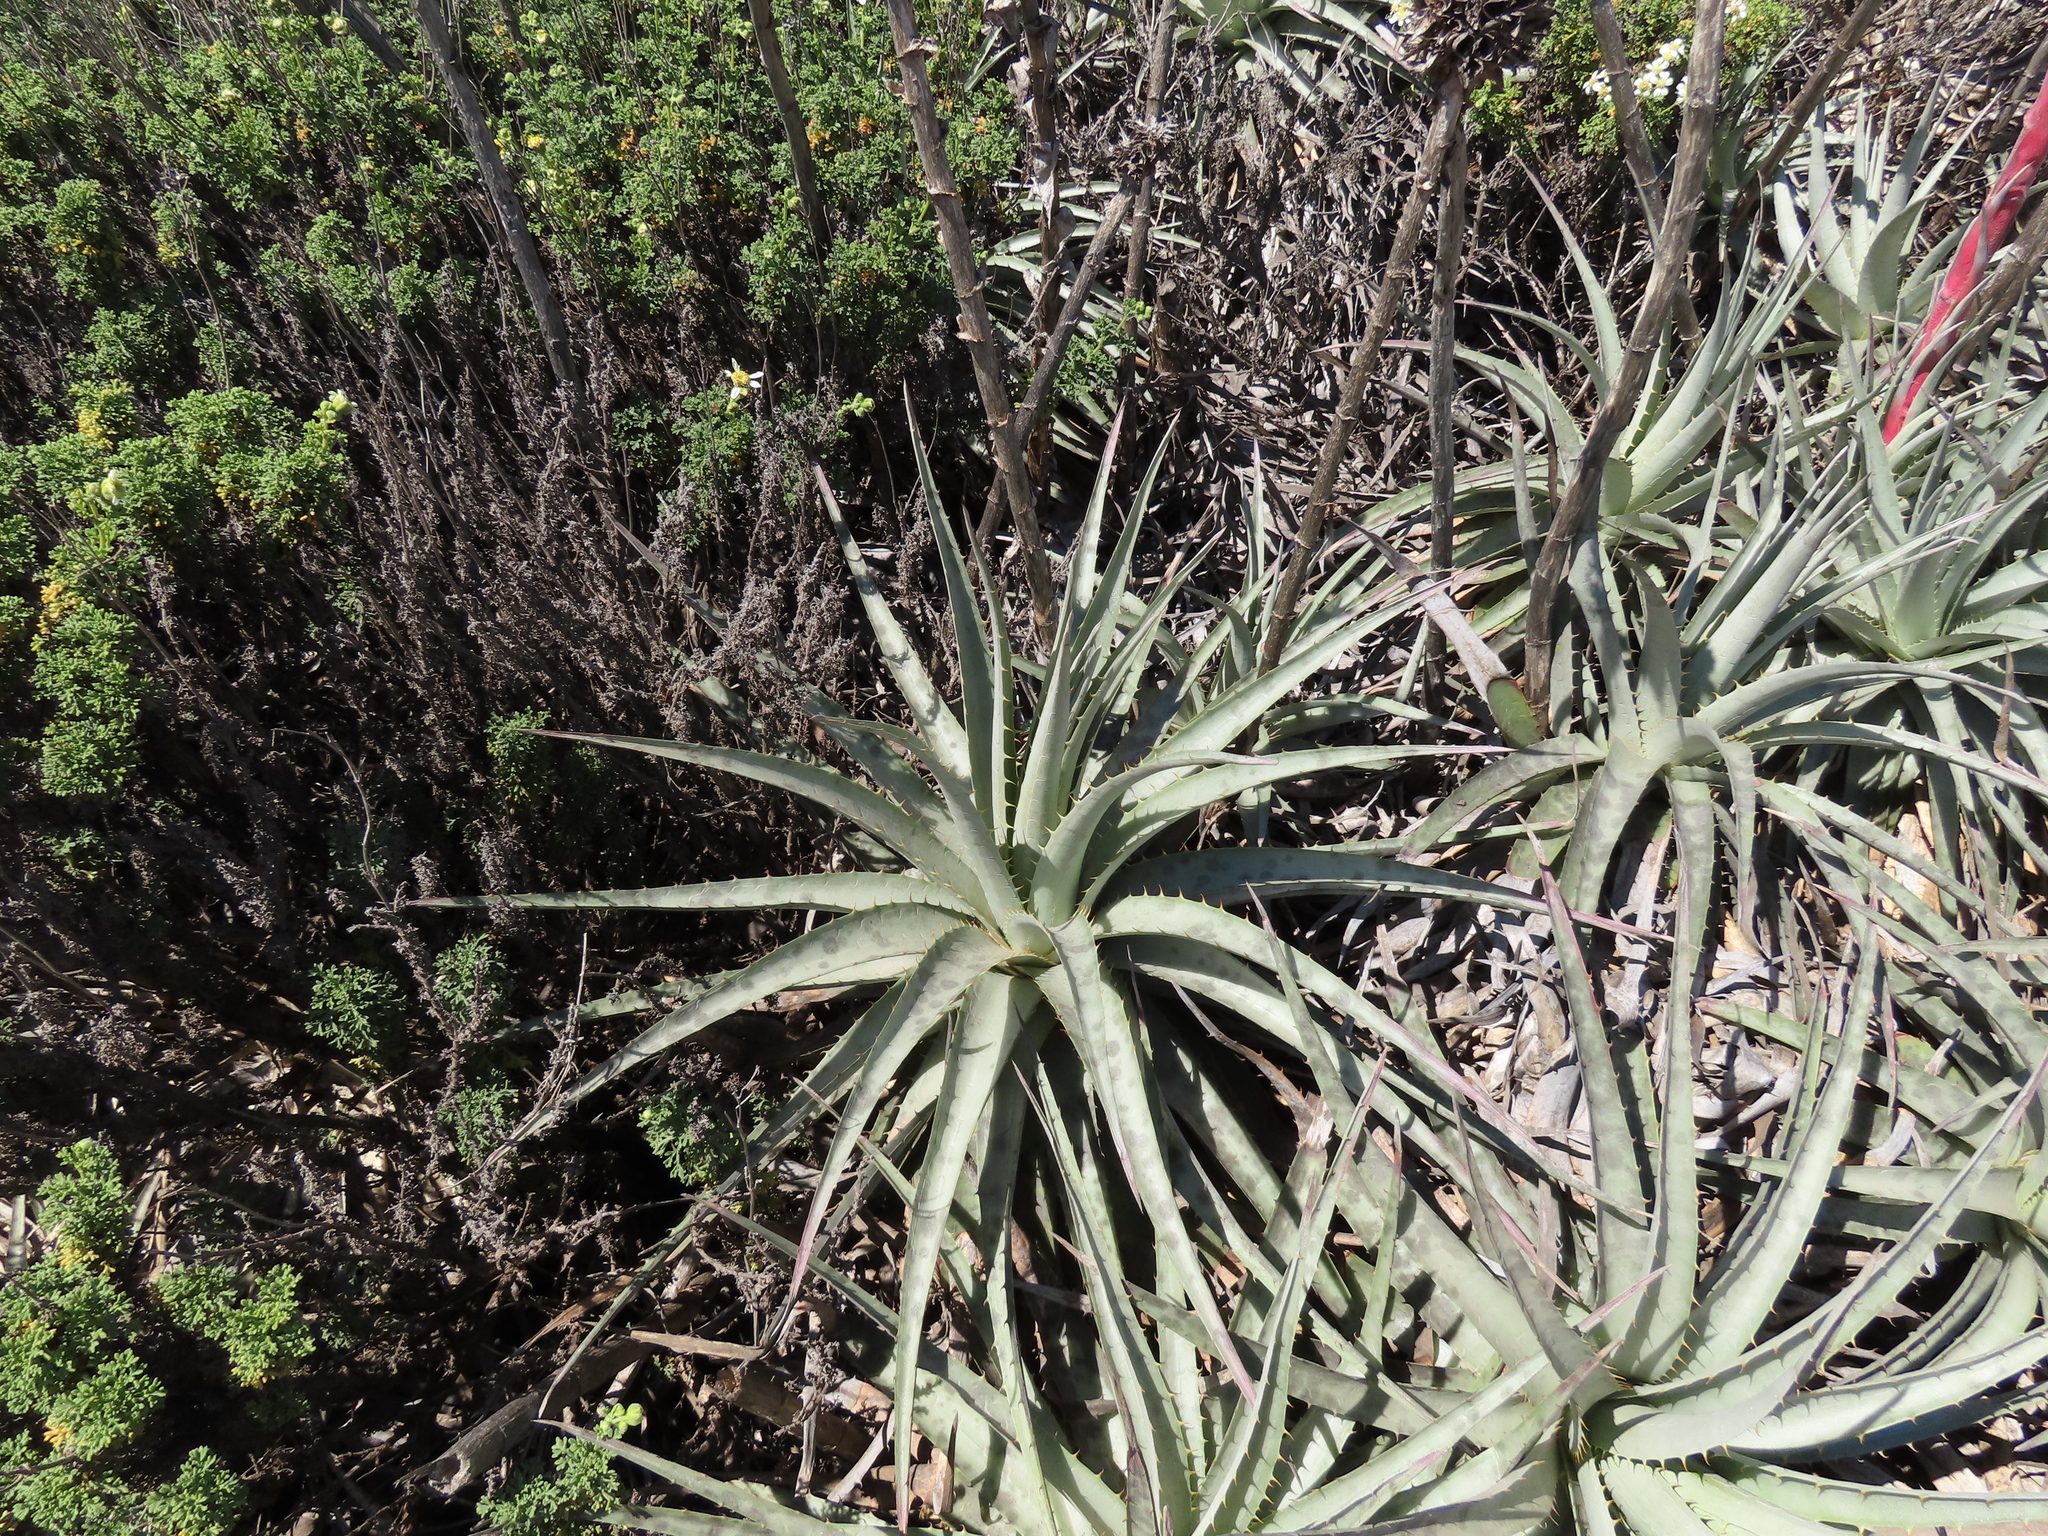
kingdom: Plantae
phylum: Tracheophyta
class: Liliopsida
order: Poales
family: Bromeliaceae
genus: Puya
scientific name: Puya venusta
